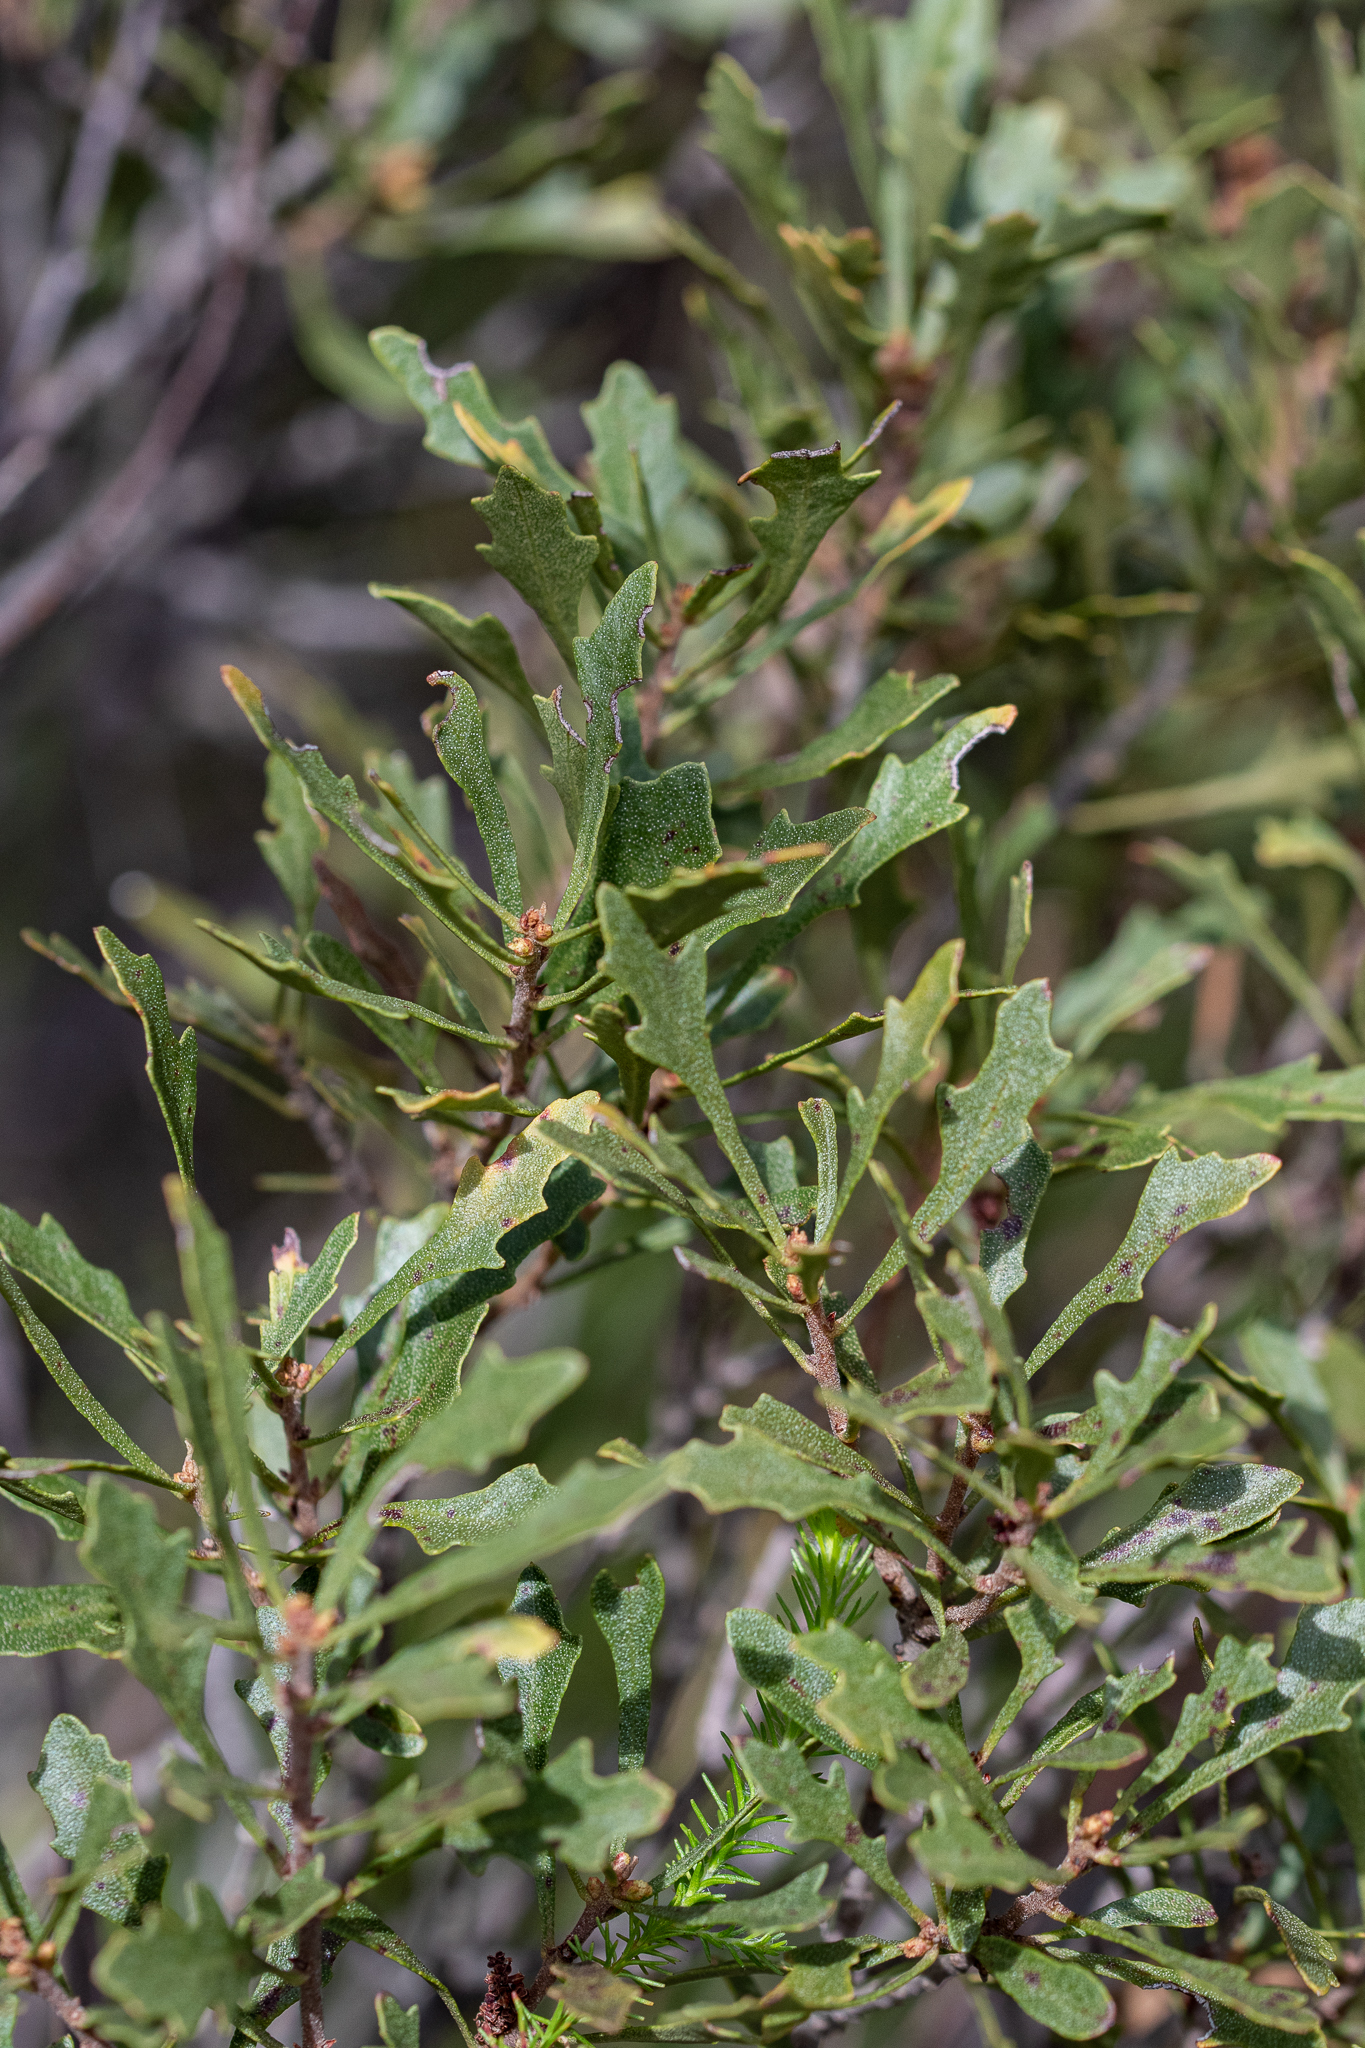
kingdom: Plantae
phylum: Tracheophyta
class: Magnoliopsida
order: Fagales
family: Myricaceae
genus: Morella
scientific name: Morella quercifolia
